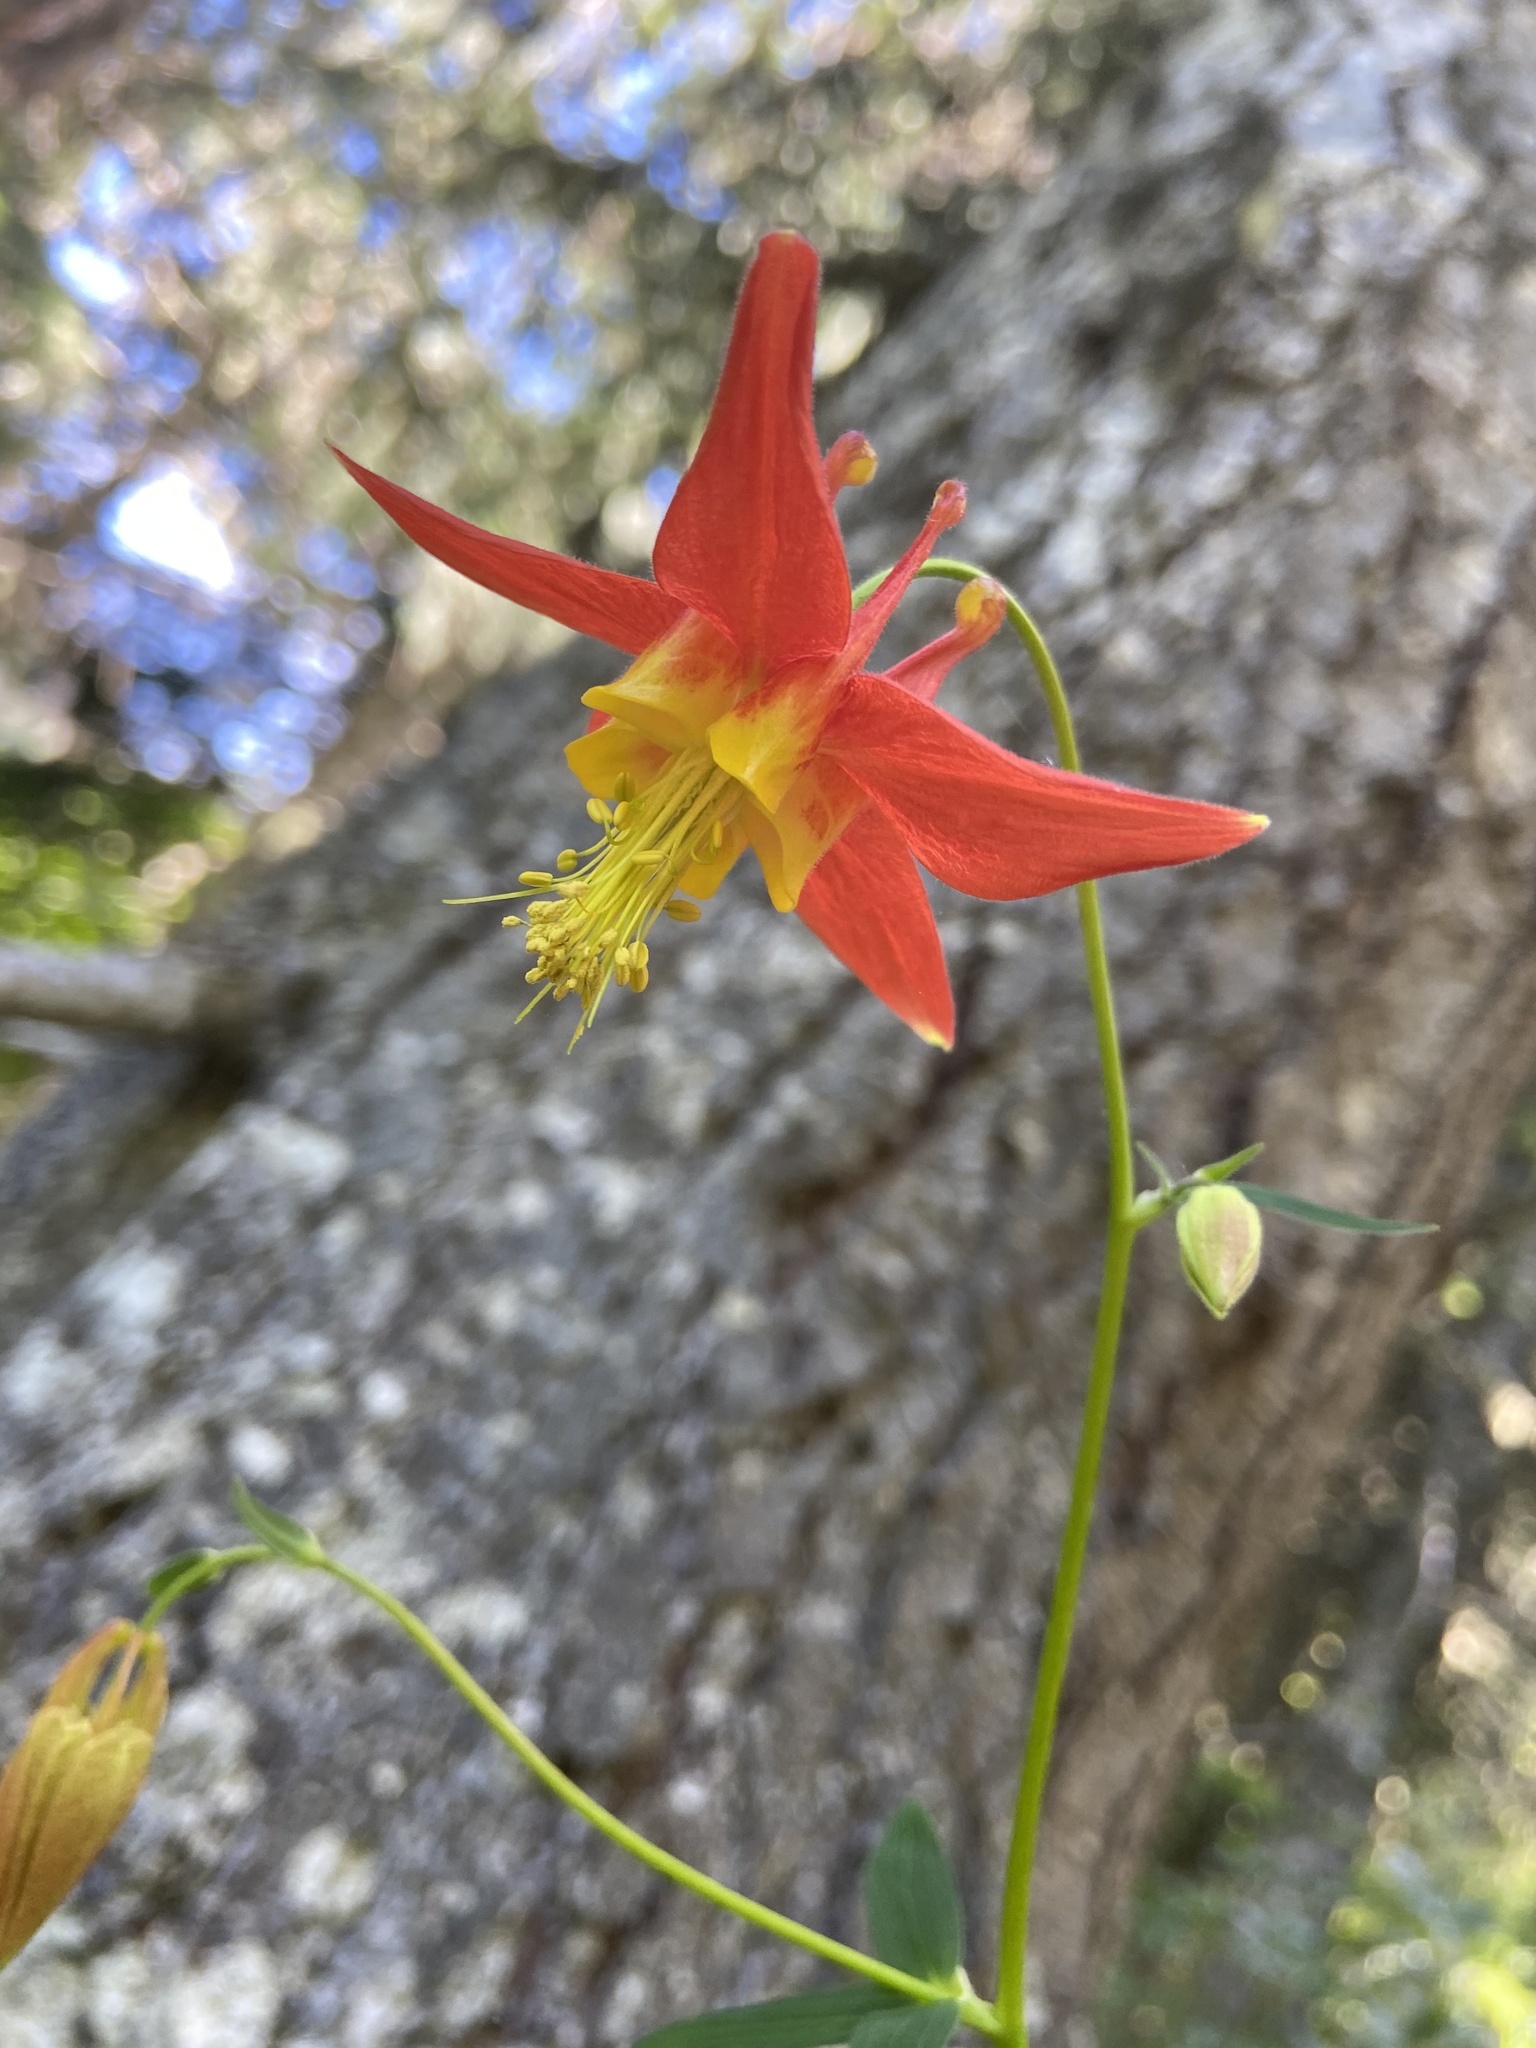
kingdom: Plantae
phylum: Tracheophyta
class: Magnoliopsida
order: Ranunculales
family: Ranunculaceae
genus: Aquilegia
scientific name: Aquilegia formosa
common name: Sitka columbine
